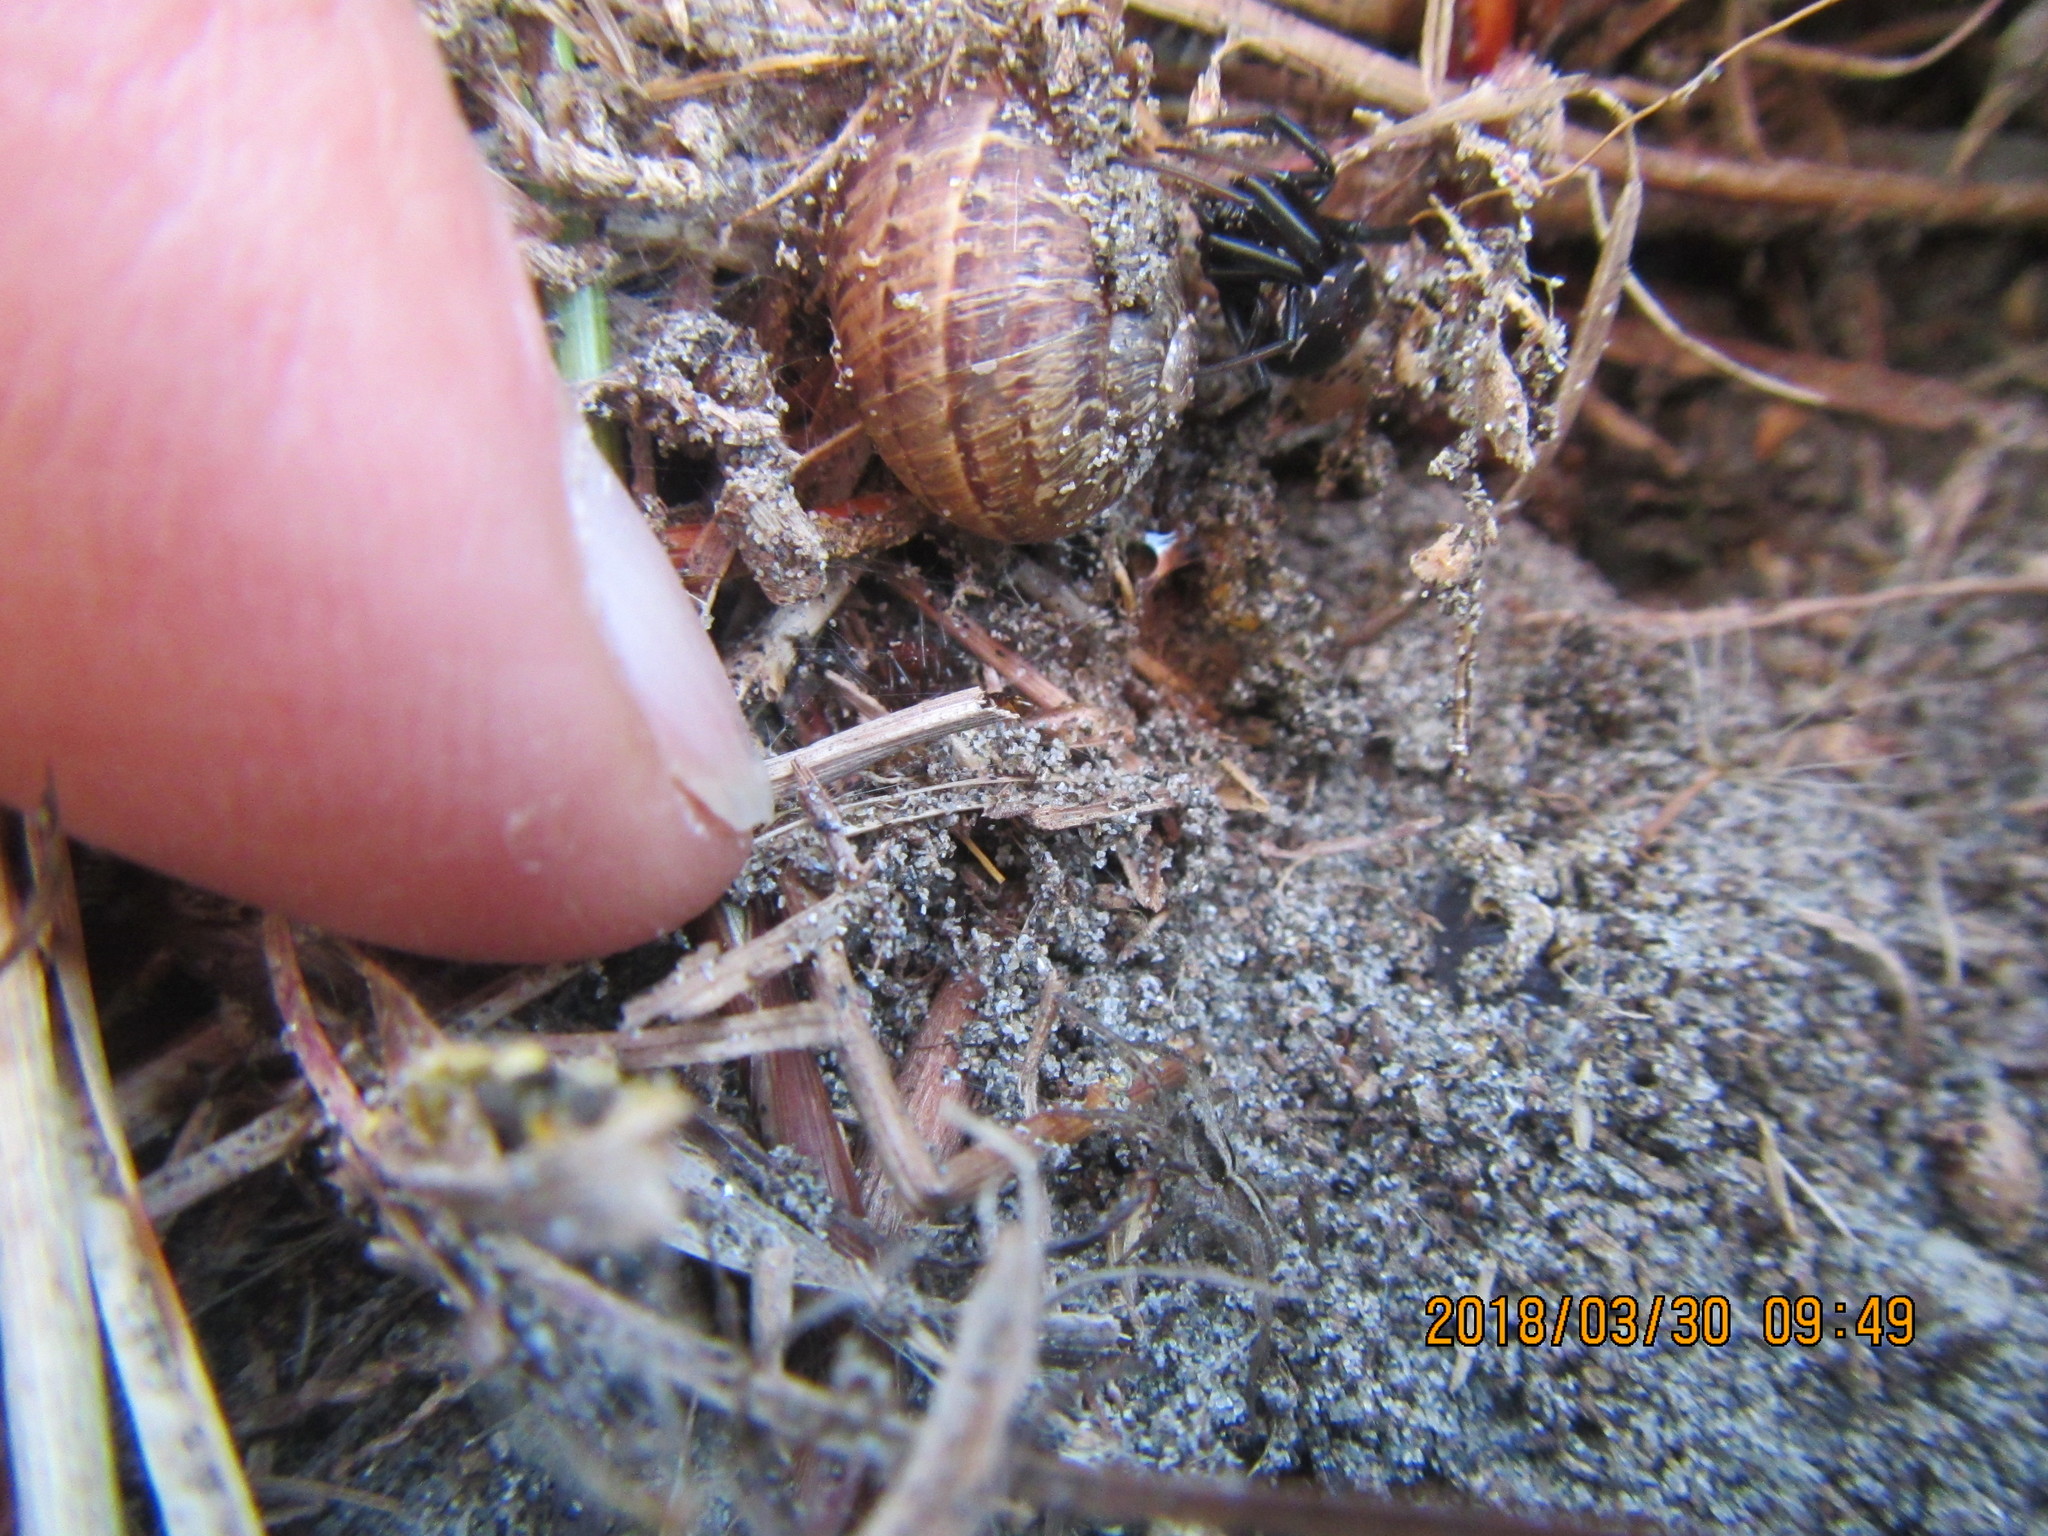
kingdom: Animalia
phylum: Mollusca
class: Gastropoda
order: Stylommatophora
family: Helicidae
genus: Cornu
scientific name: Cornu aspersum
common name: Brown garden snail
